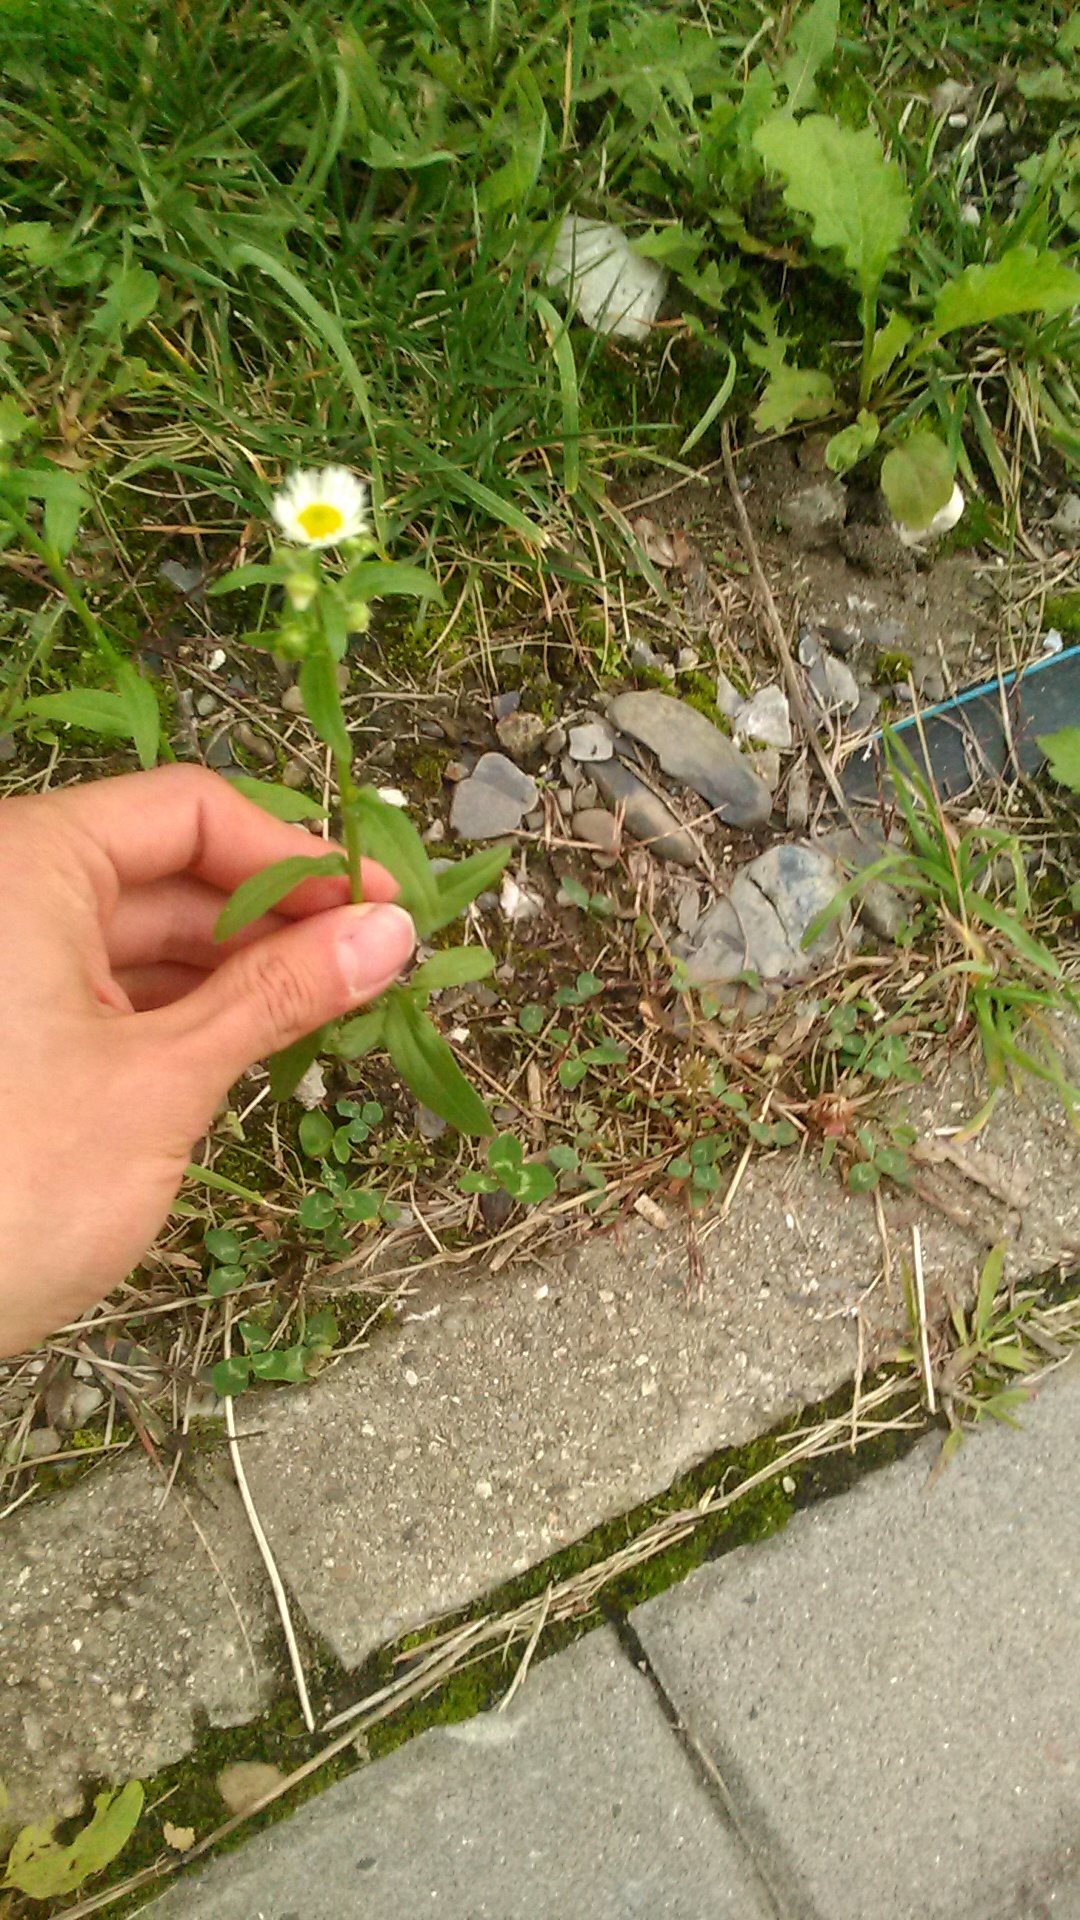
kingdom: Plantae
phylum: Tracheophyta
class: Magnoliopsida
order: Asterales
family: Asteraceae
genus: Erigeron
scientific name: Erigeron annuus
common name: Tall fleabane
